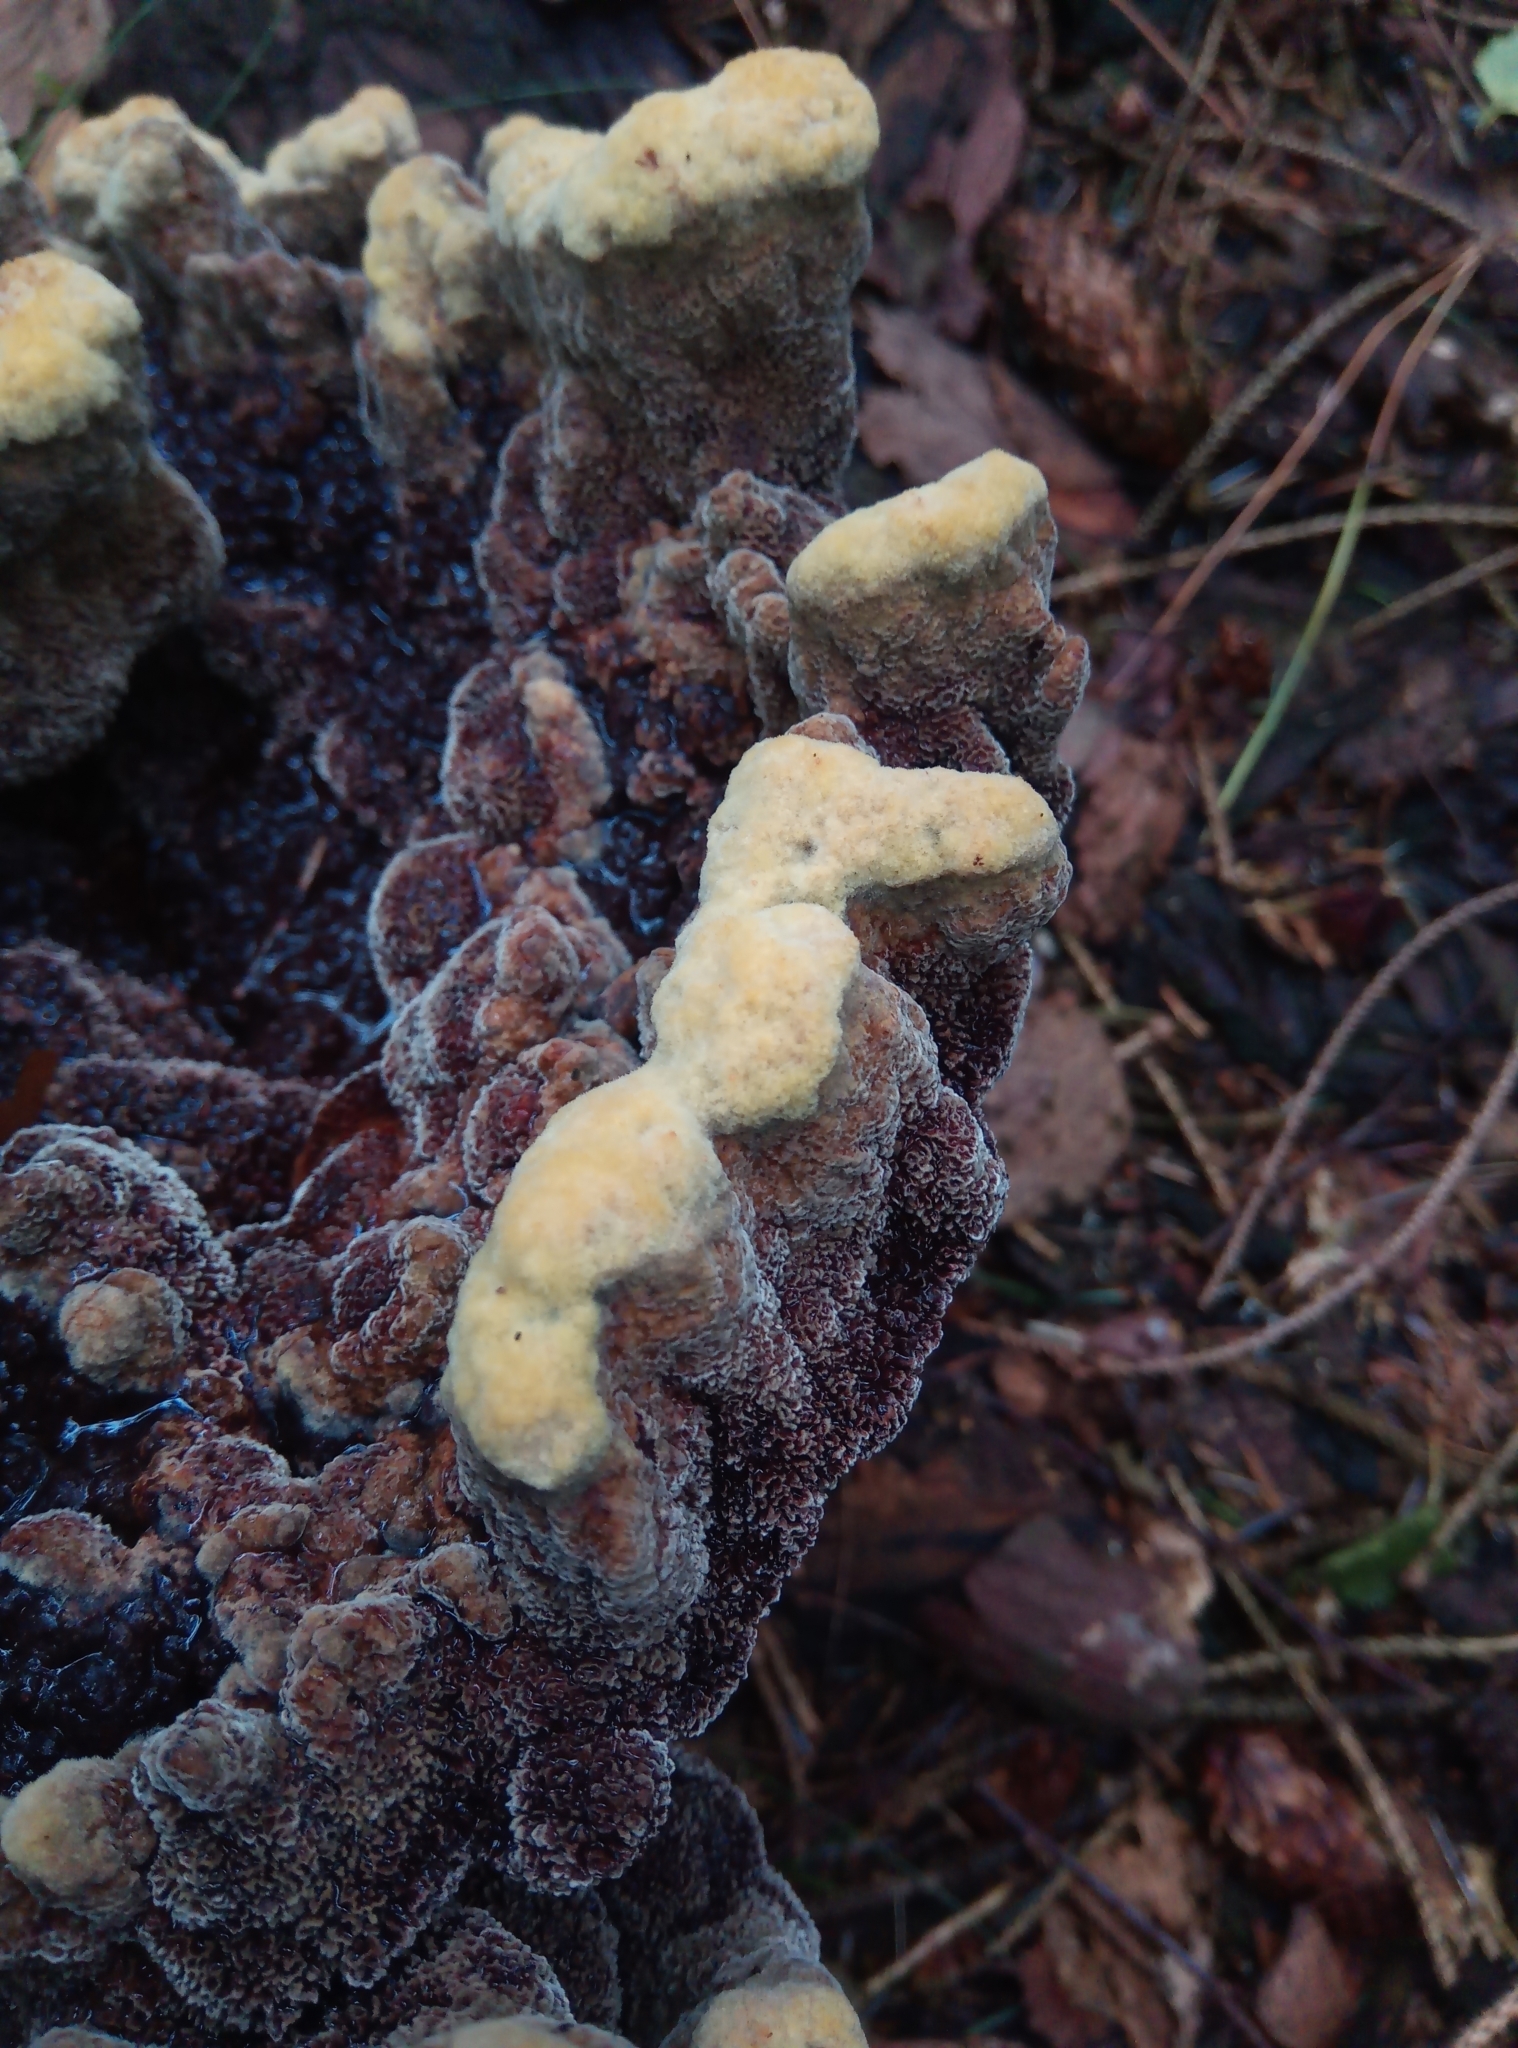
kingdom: Fungi
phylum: Basidiomycota
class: Agaricomycetes
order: Polyporales
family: Laetiporaceae
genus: Phaeolus
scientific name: Phaeolus schweinitzii
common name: Dyer's mazegill
